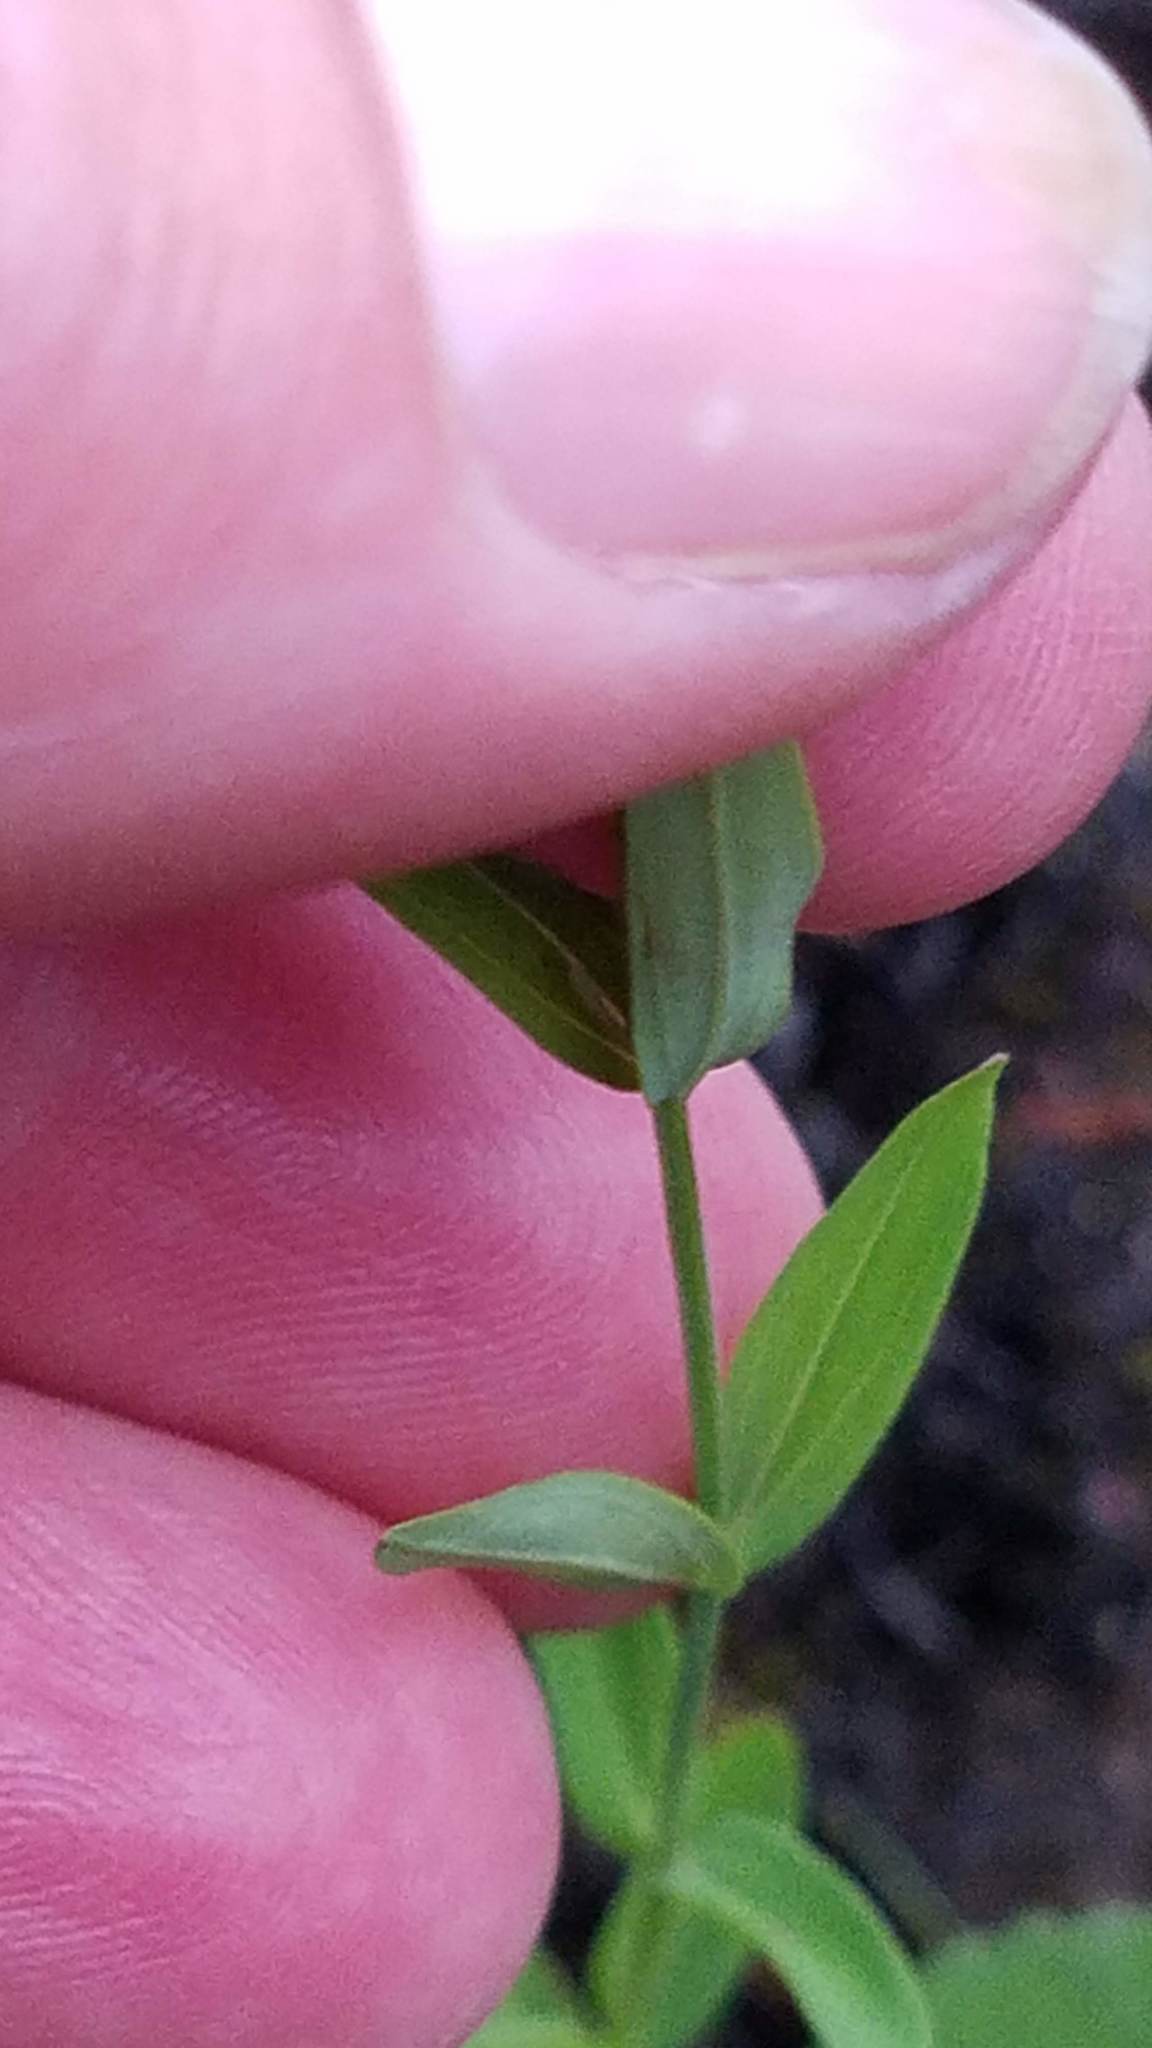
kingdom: Plantae
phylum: Tracheophyta
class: Magnoliopsida
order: Malpighiales
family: Hypericaceae
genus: Hypericum
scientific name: Hypericum majus
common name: Greater canadian st. john's-wort
